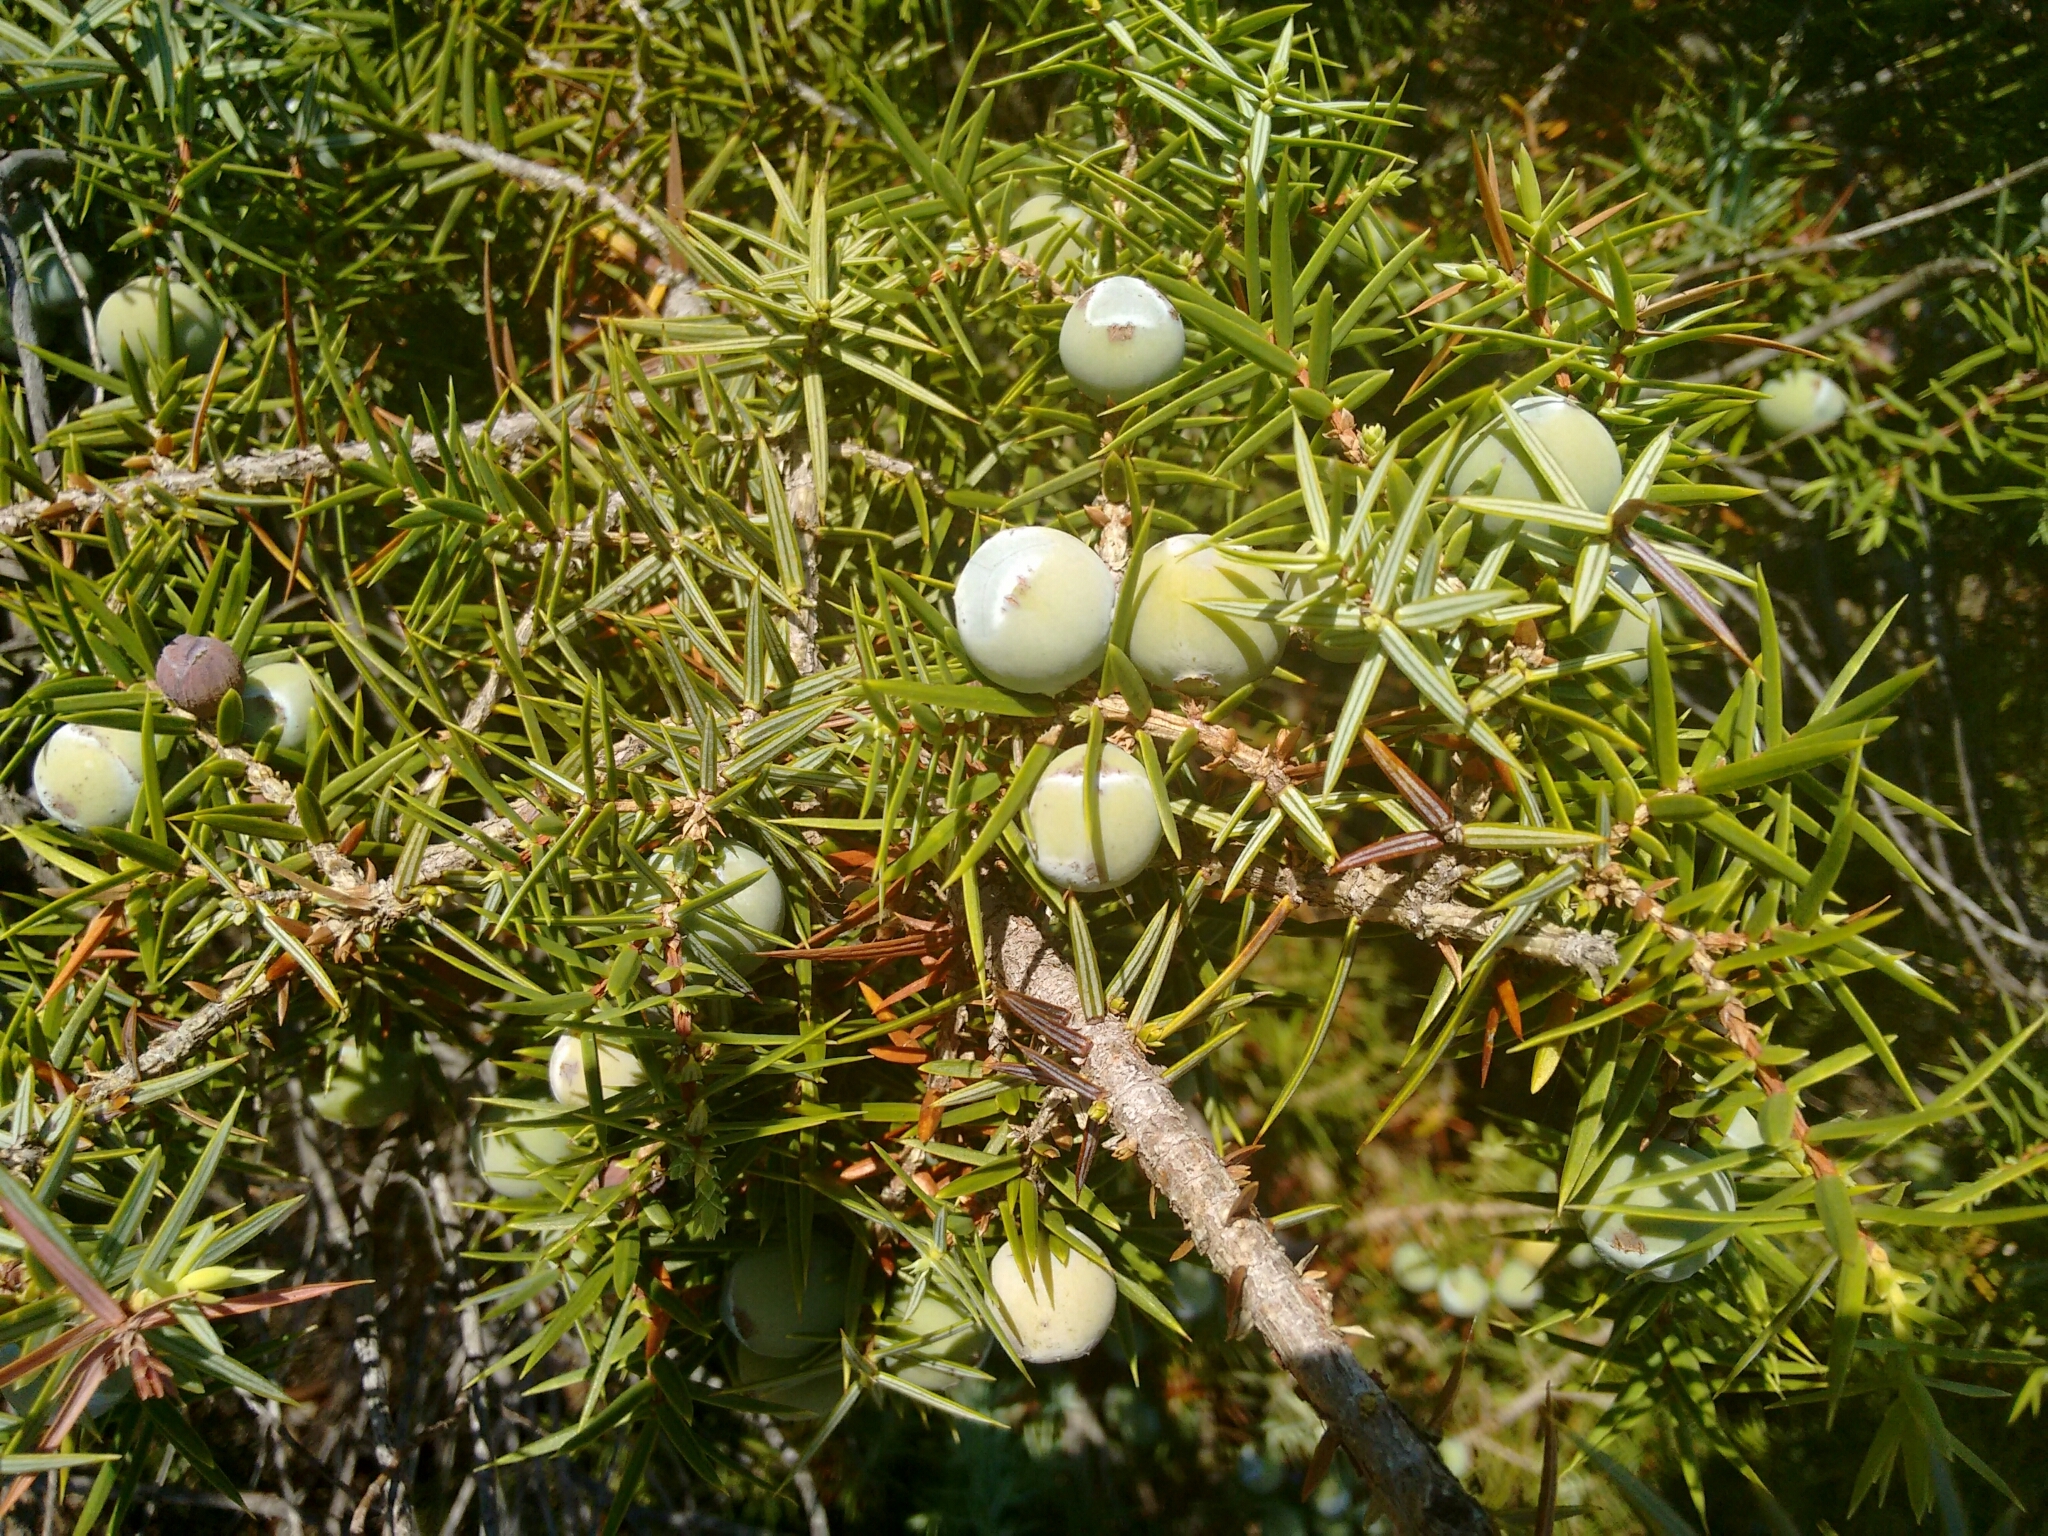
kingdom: Plantae
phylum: Tracheophyta
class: Pinopsida
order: Pinales
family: Cupressaceae
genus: Juniperus
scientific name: Juniperus oxycedrus
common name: Prickly juniper
